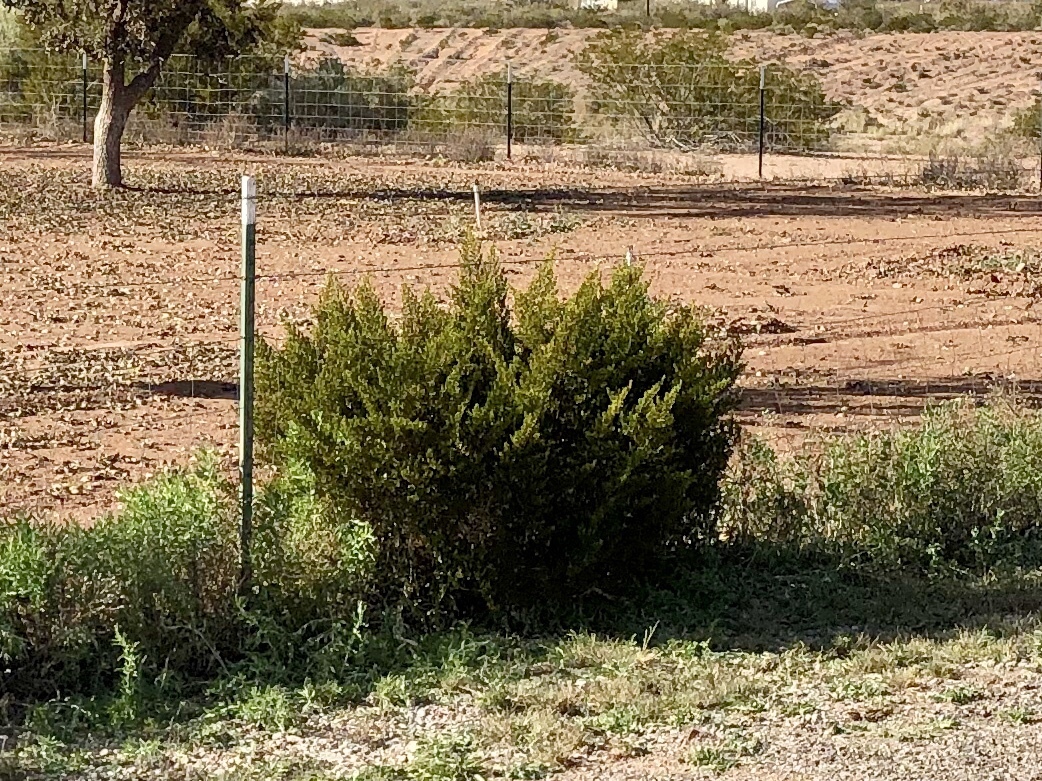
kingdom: Plantae
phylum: Tracheophyta
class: Magnoliopsida
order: Zygophyllales
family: Zygophyllaceae
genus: Larrea
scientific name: Larrea tridentata
